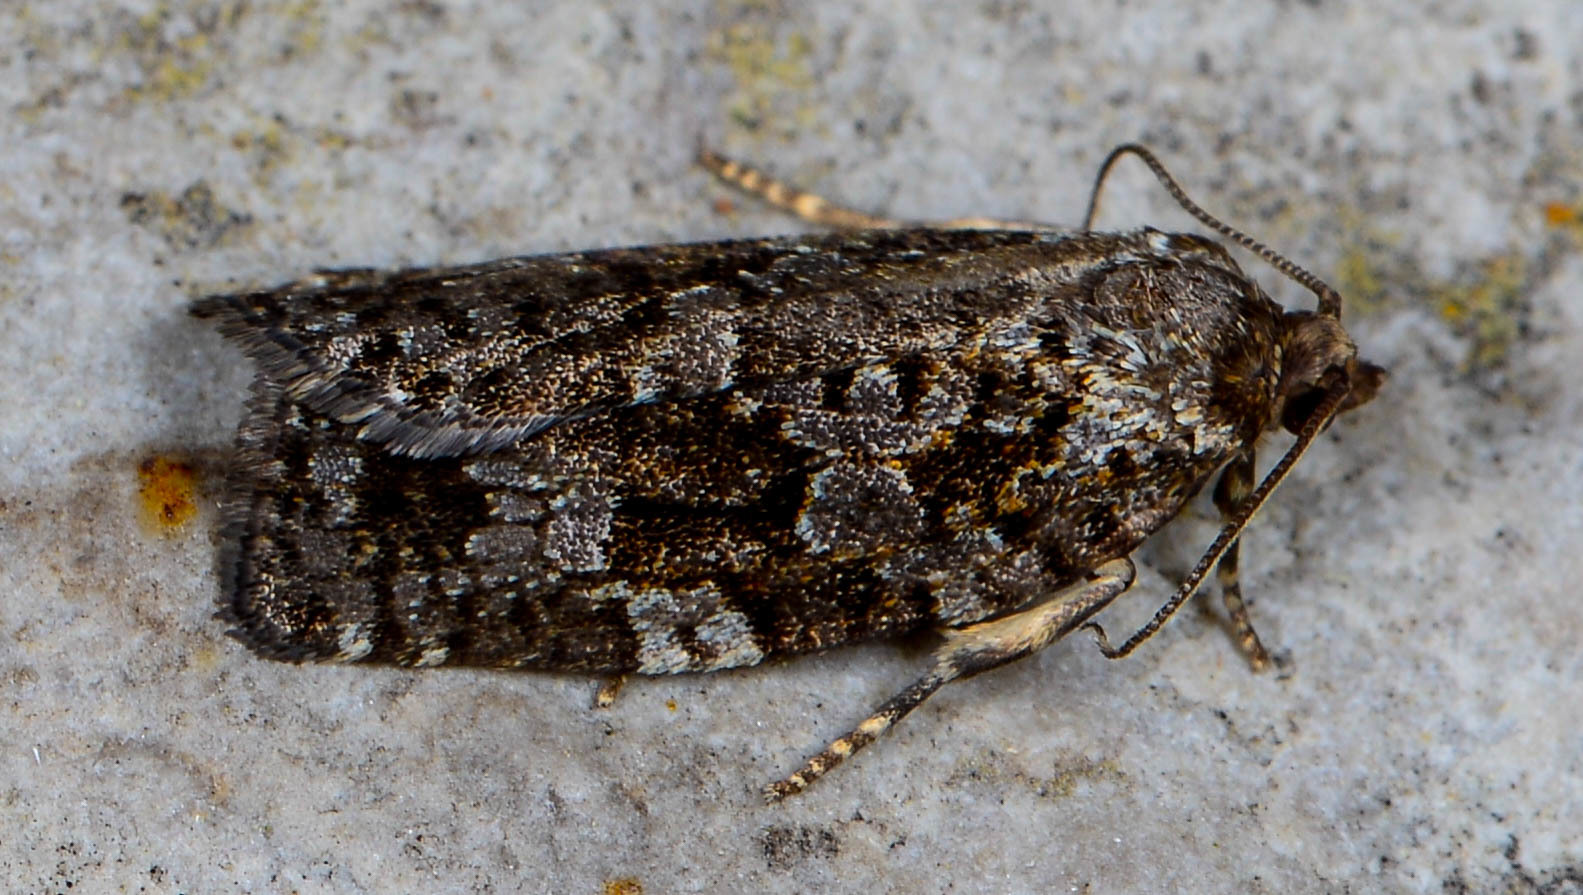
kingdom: Animalia
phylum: Arthropoda
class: Insecta
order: Lepidoptera
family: Tortricidae
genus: Choristoneura
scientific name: Choristoneura fumiferana
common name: Spruce budworm
